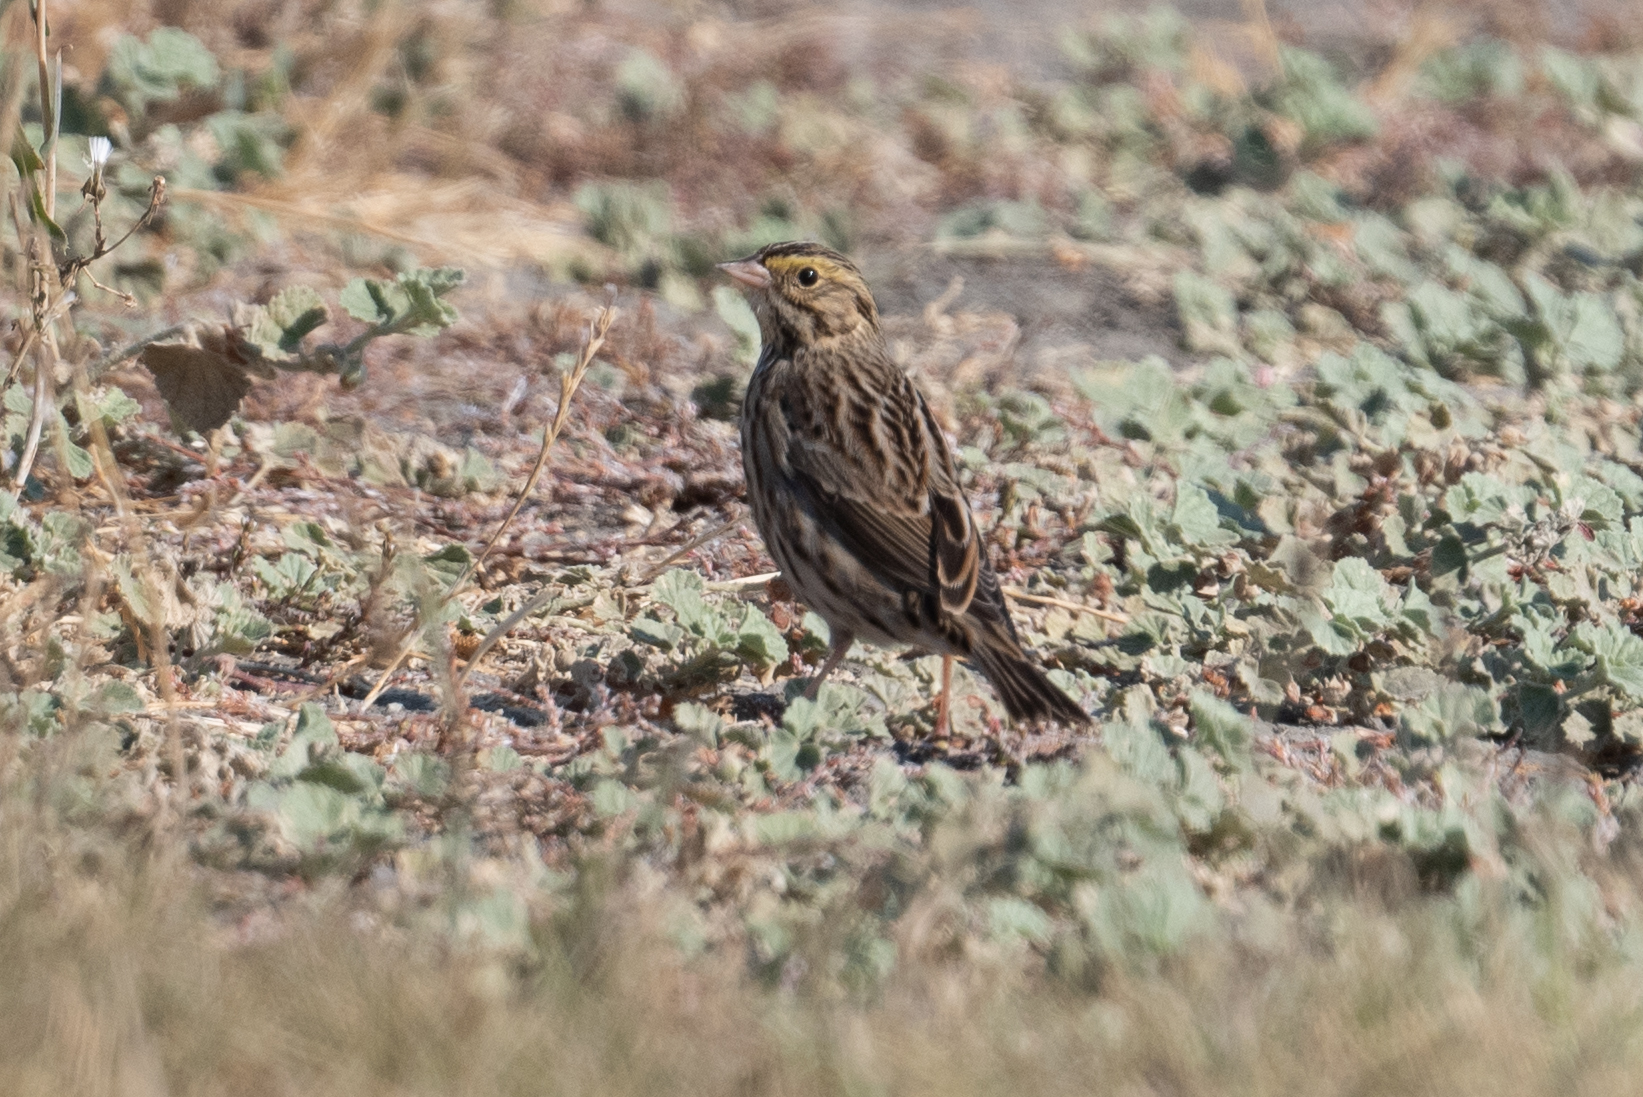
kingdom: Animalia
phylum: Chordata
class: Aves
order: Passeriformes
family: Passerellidae
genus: Passerculus
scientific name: Passerculus sandwichensis
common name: Savannah sparrow
